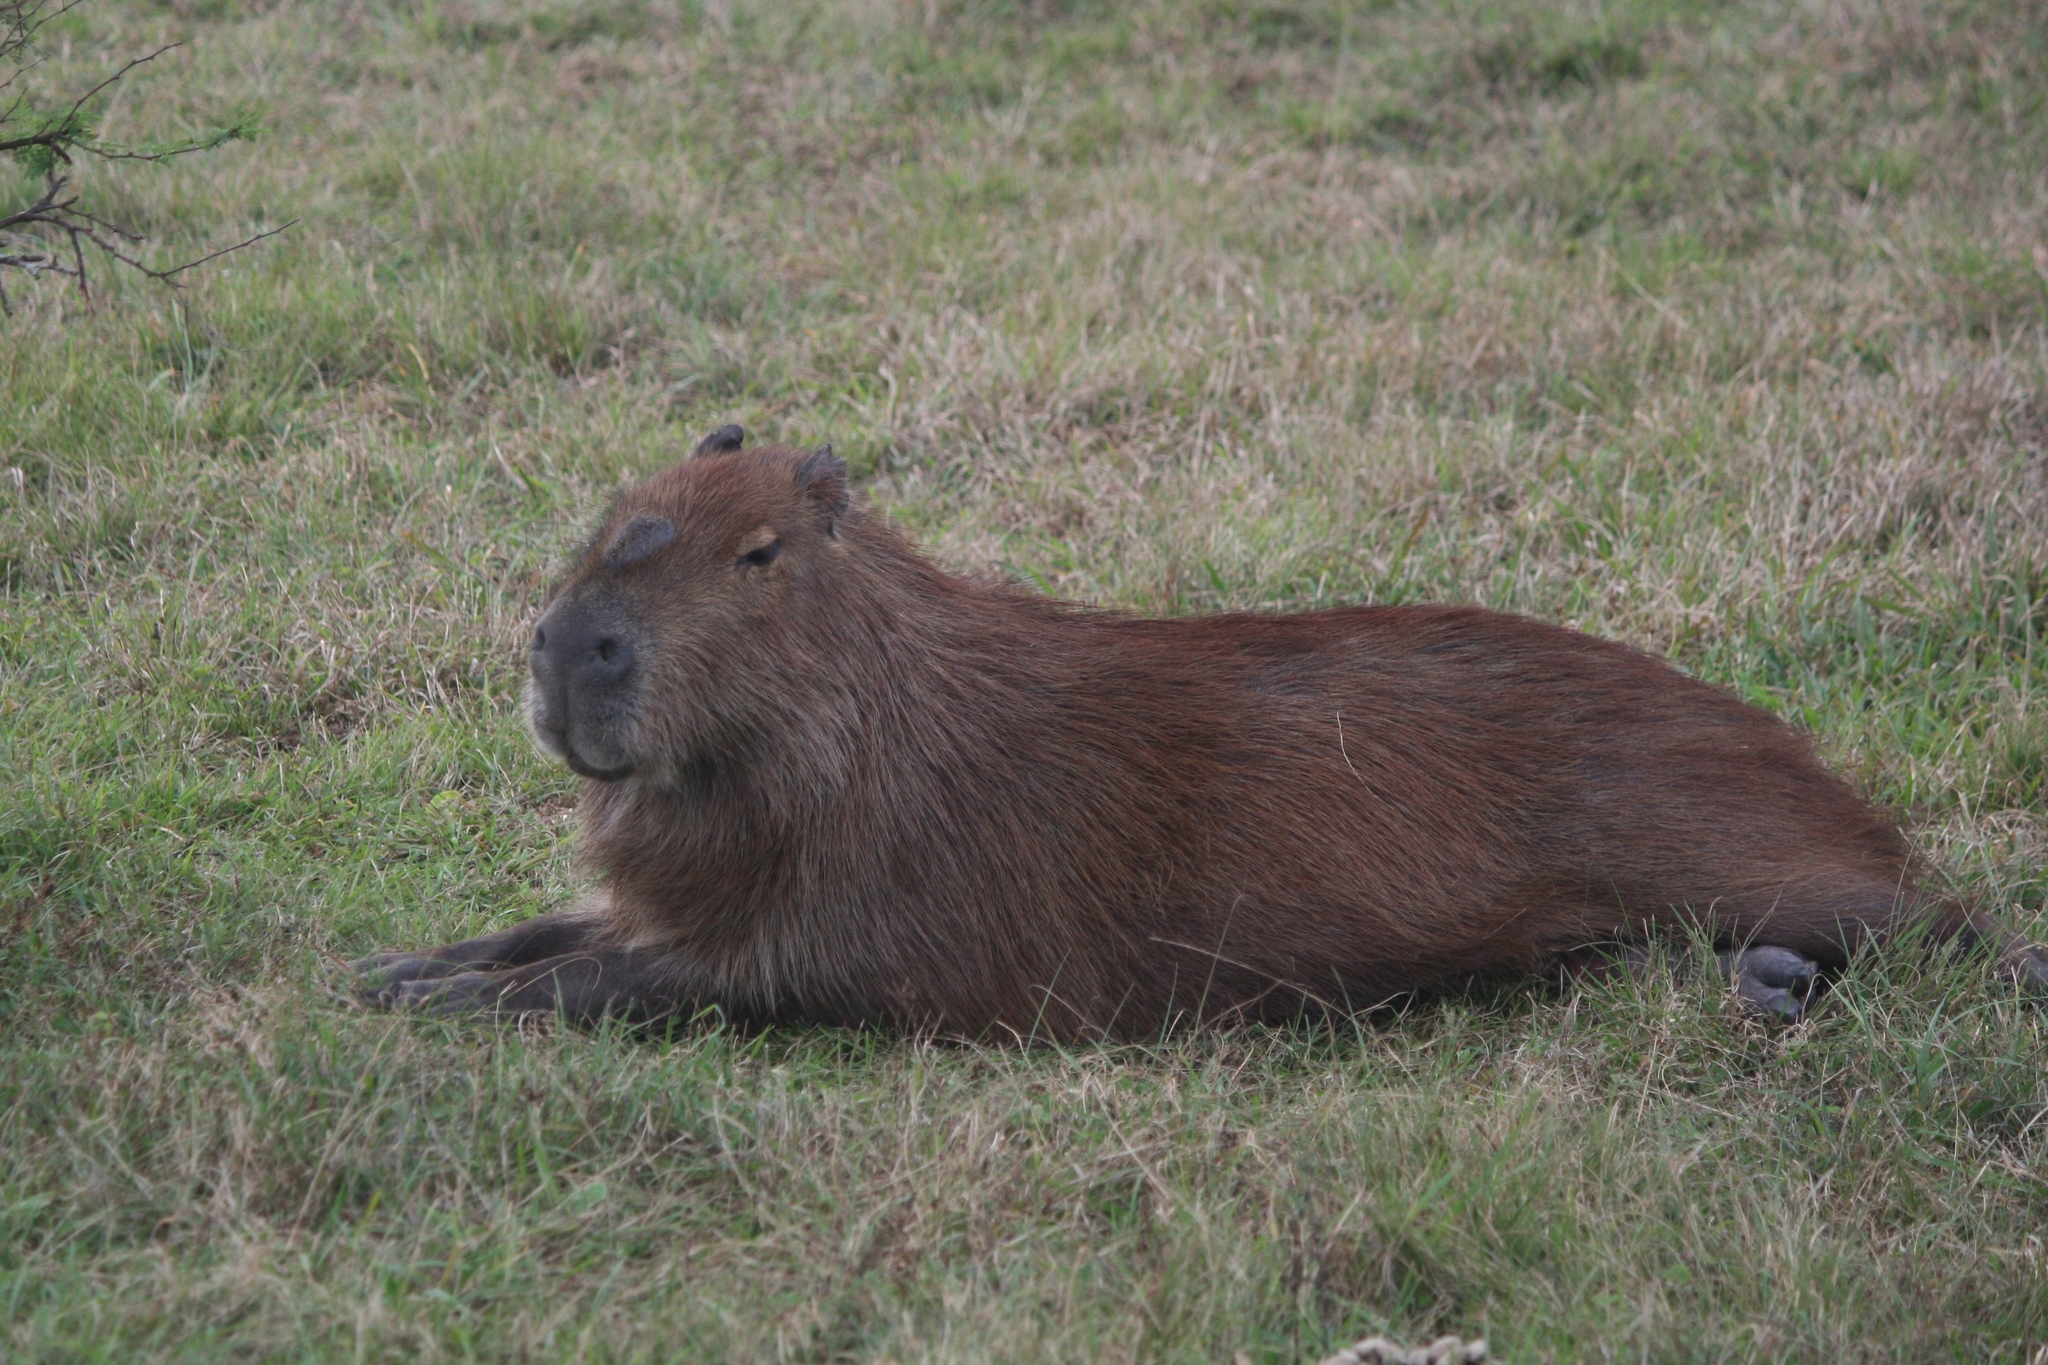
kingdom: Animalia
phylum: Chordata
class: Mammalia
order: Rodentia
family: Caviidae
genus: Hydrochoerus
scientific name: Hydrochoerus hydrochaeris
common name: Capybara
